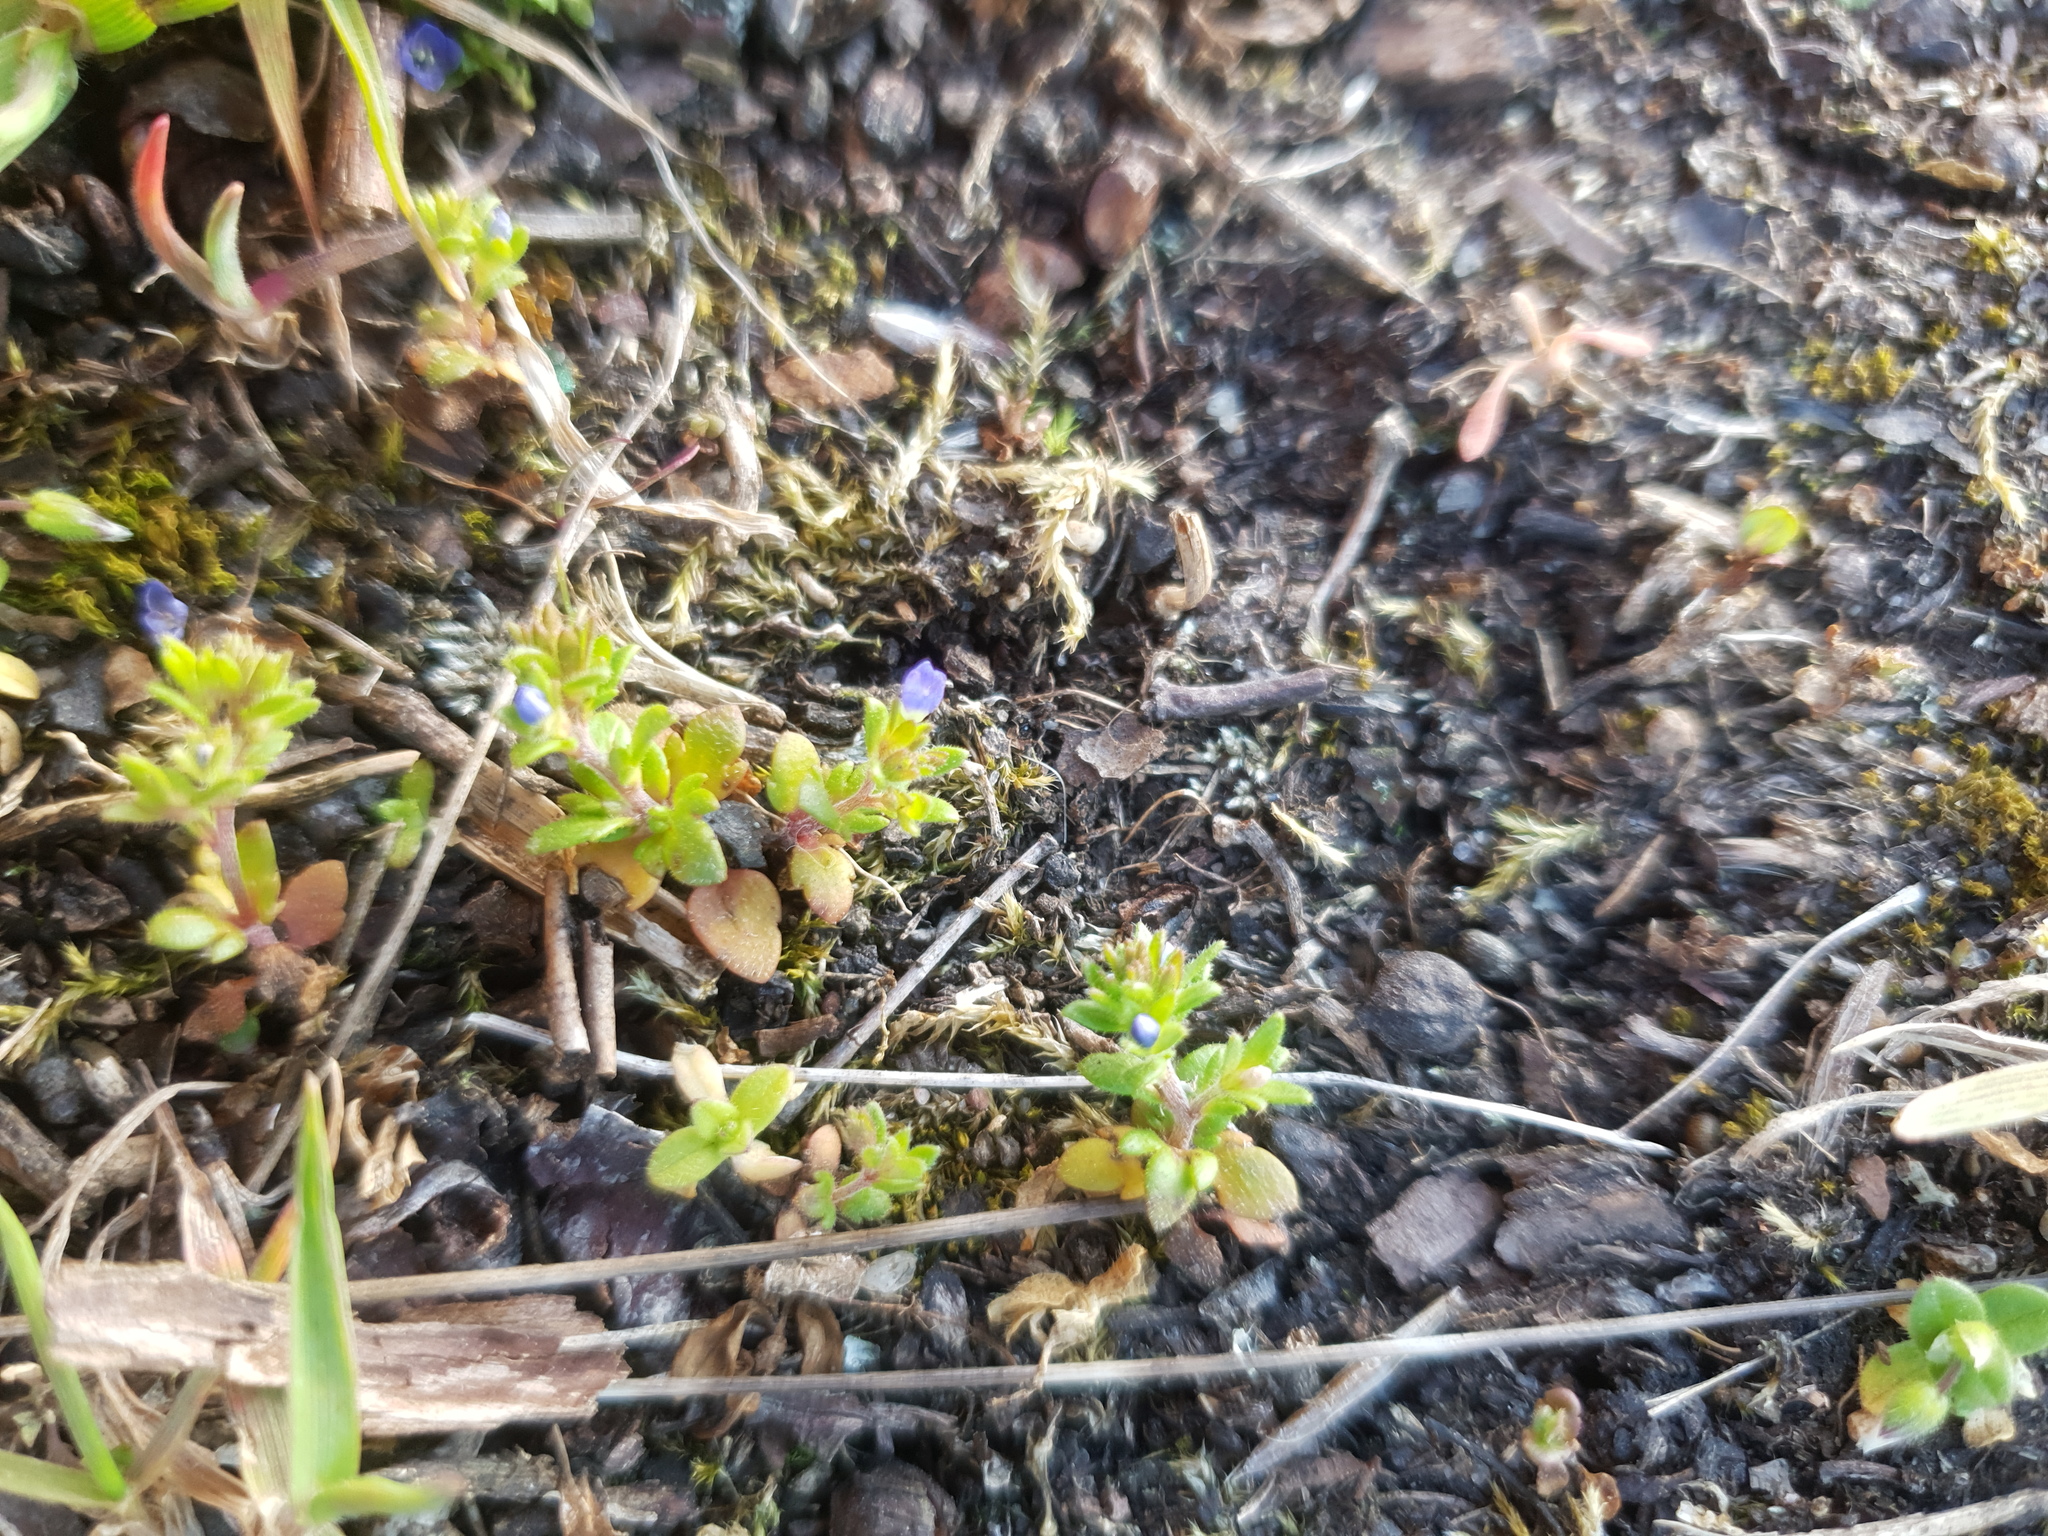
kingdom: Plantae
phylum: Tracheophyta
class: Magnoliopsida
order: Lamiales
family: Plantaginaceae
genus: Veronica
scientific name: Veronica arvensis
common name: Corn speedwell
